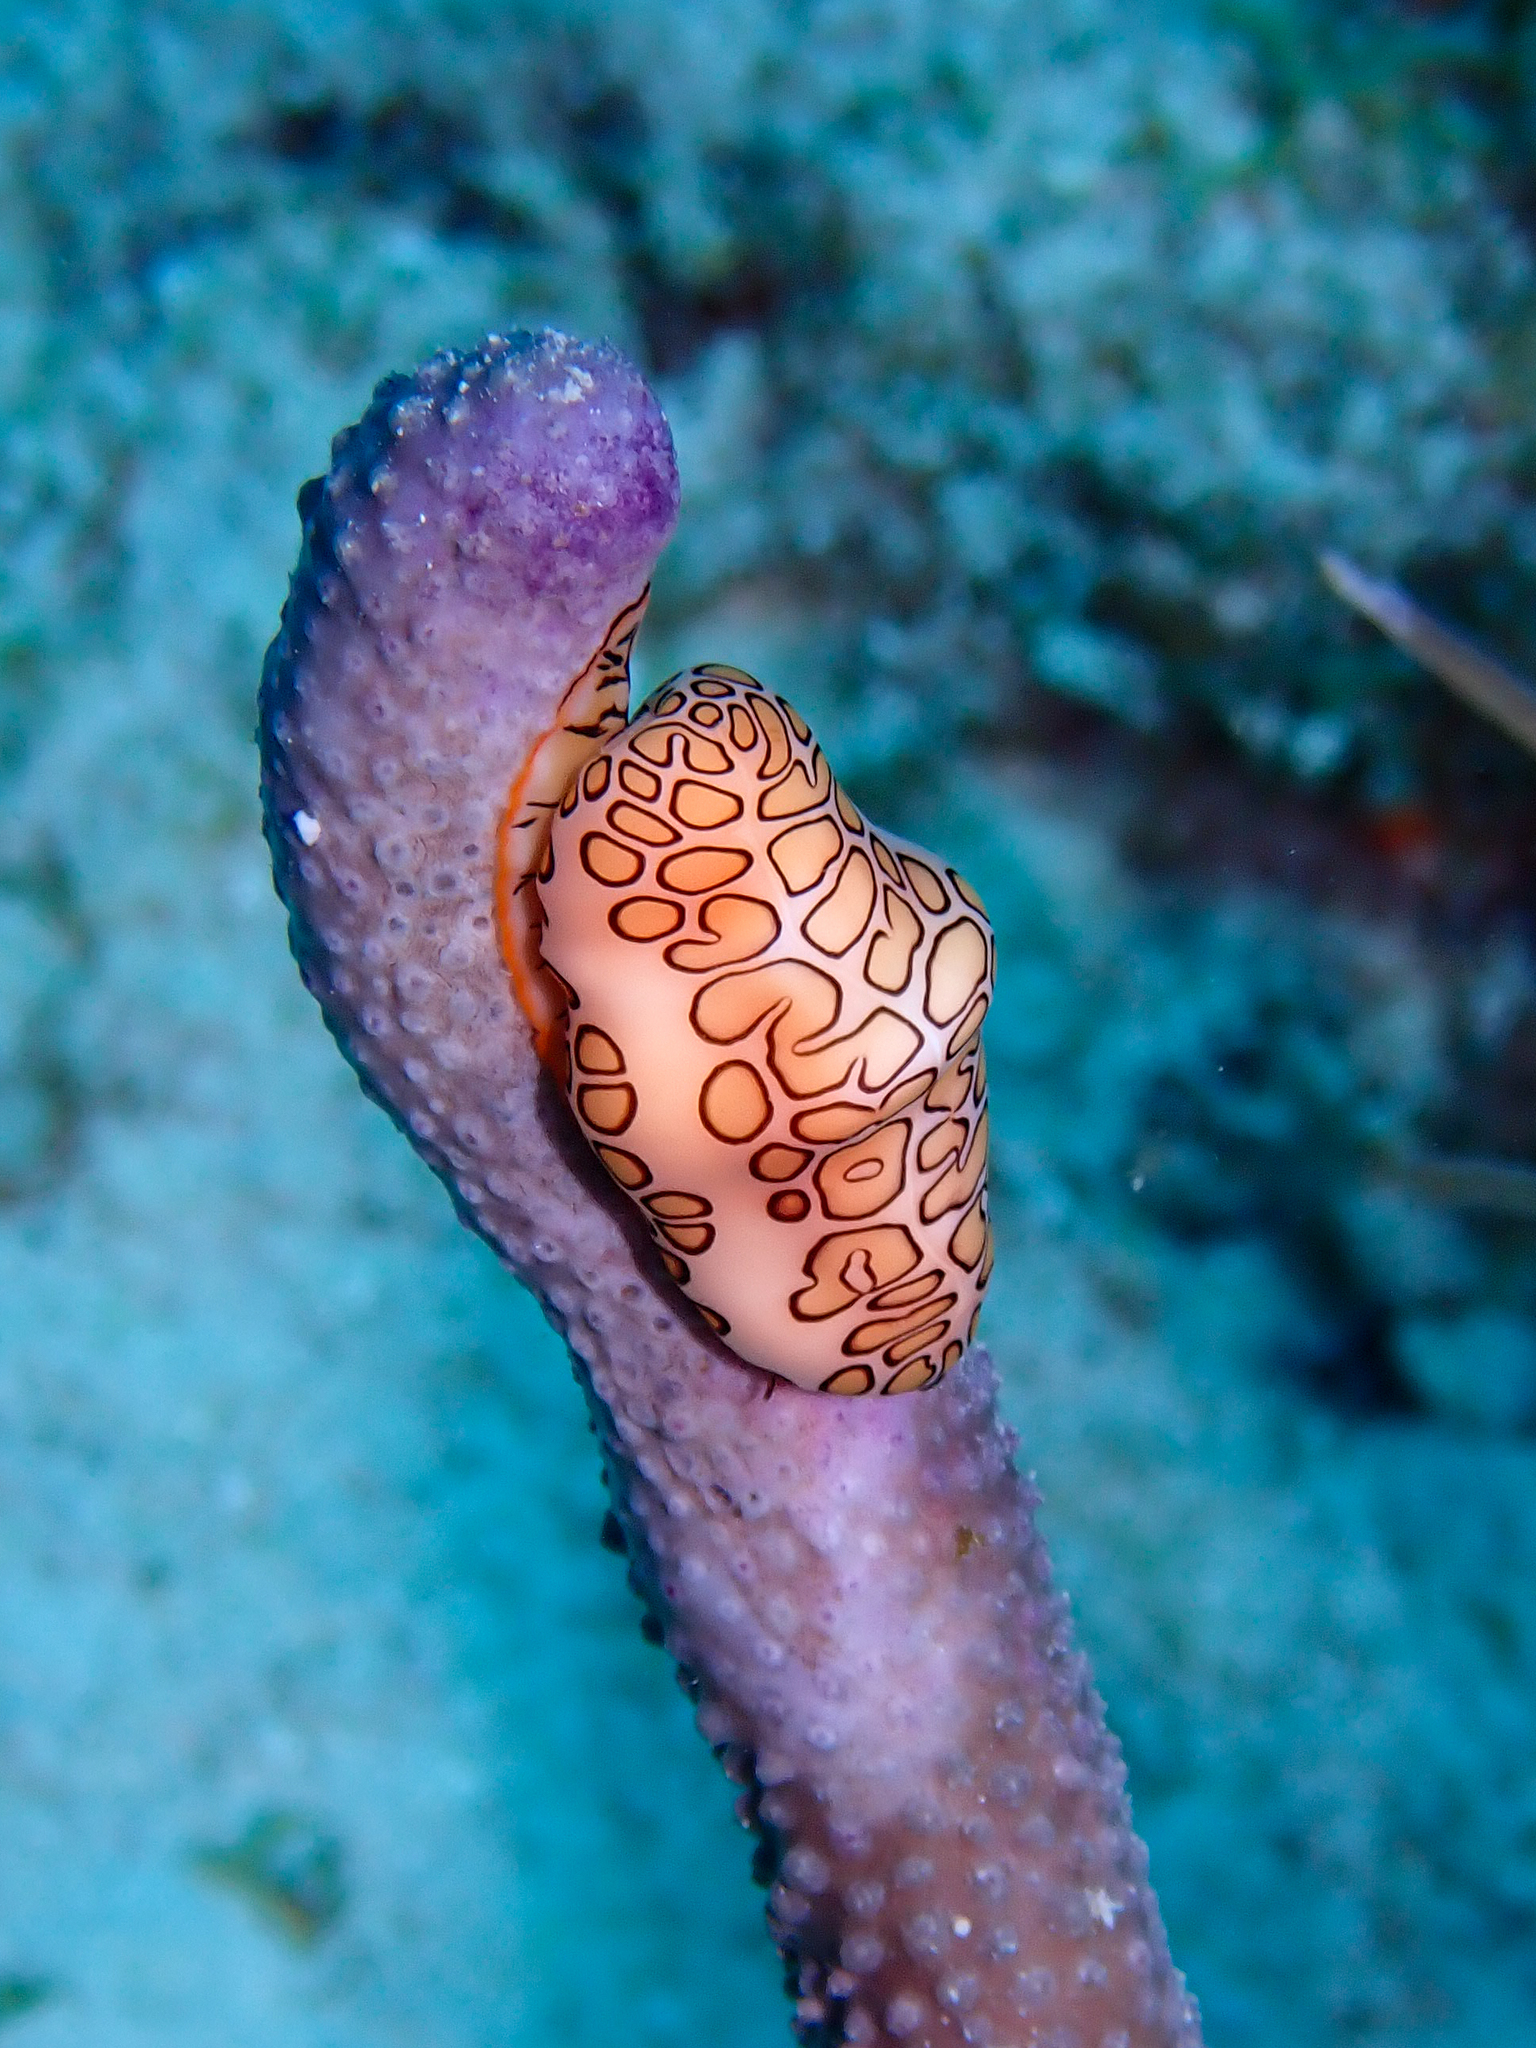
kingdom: Animalia
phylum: Mollusca
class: Gastropoda
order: Littorinimorpha
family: Ovulidae
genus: Cyphoma
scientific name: Cyphoma gibbosum
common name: Flamingo tongue
